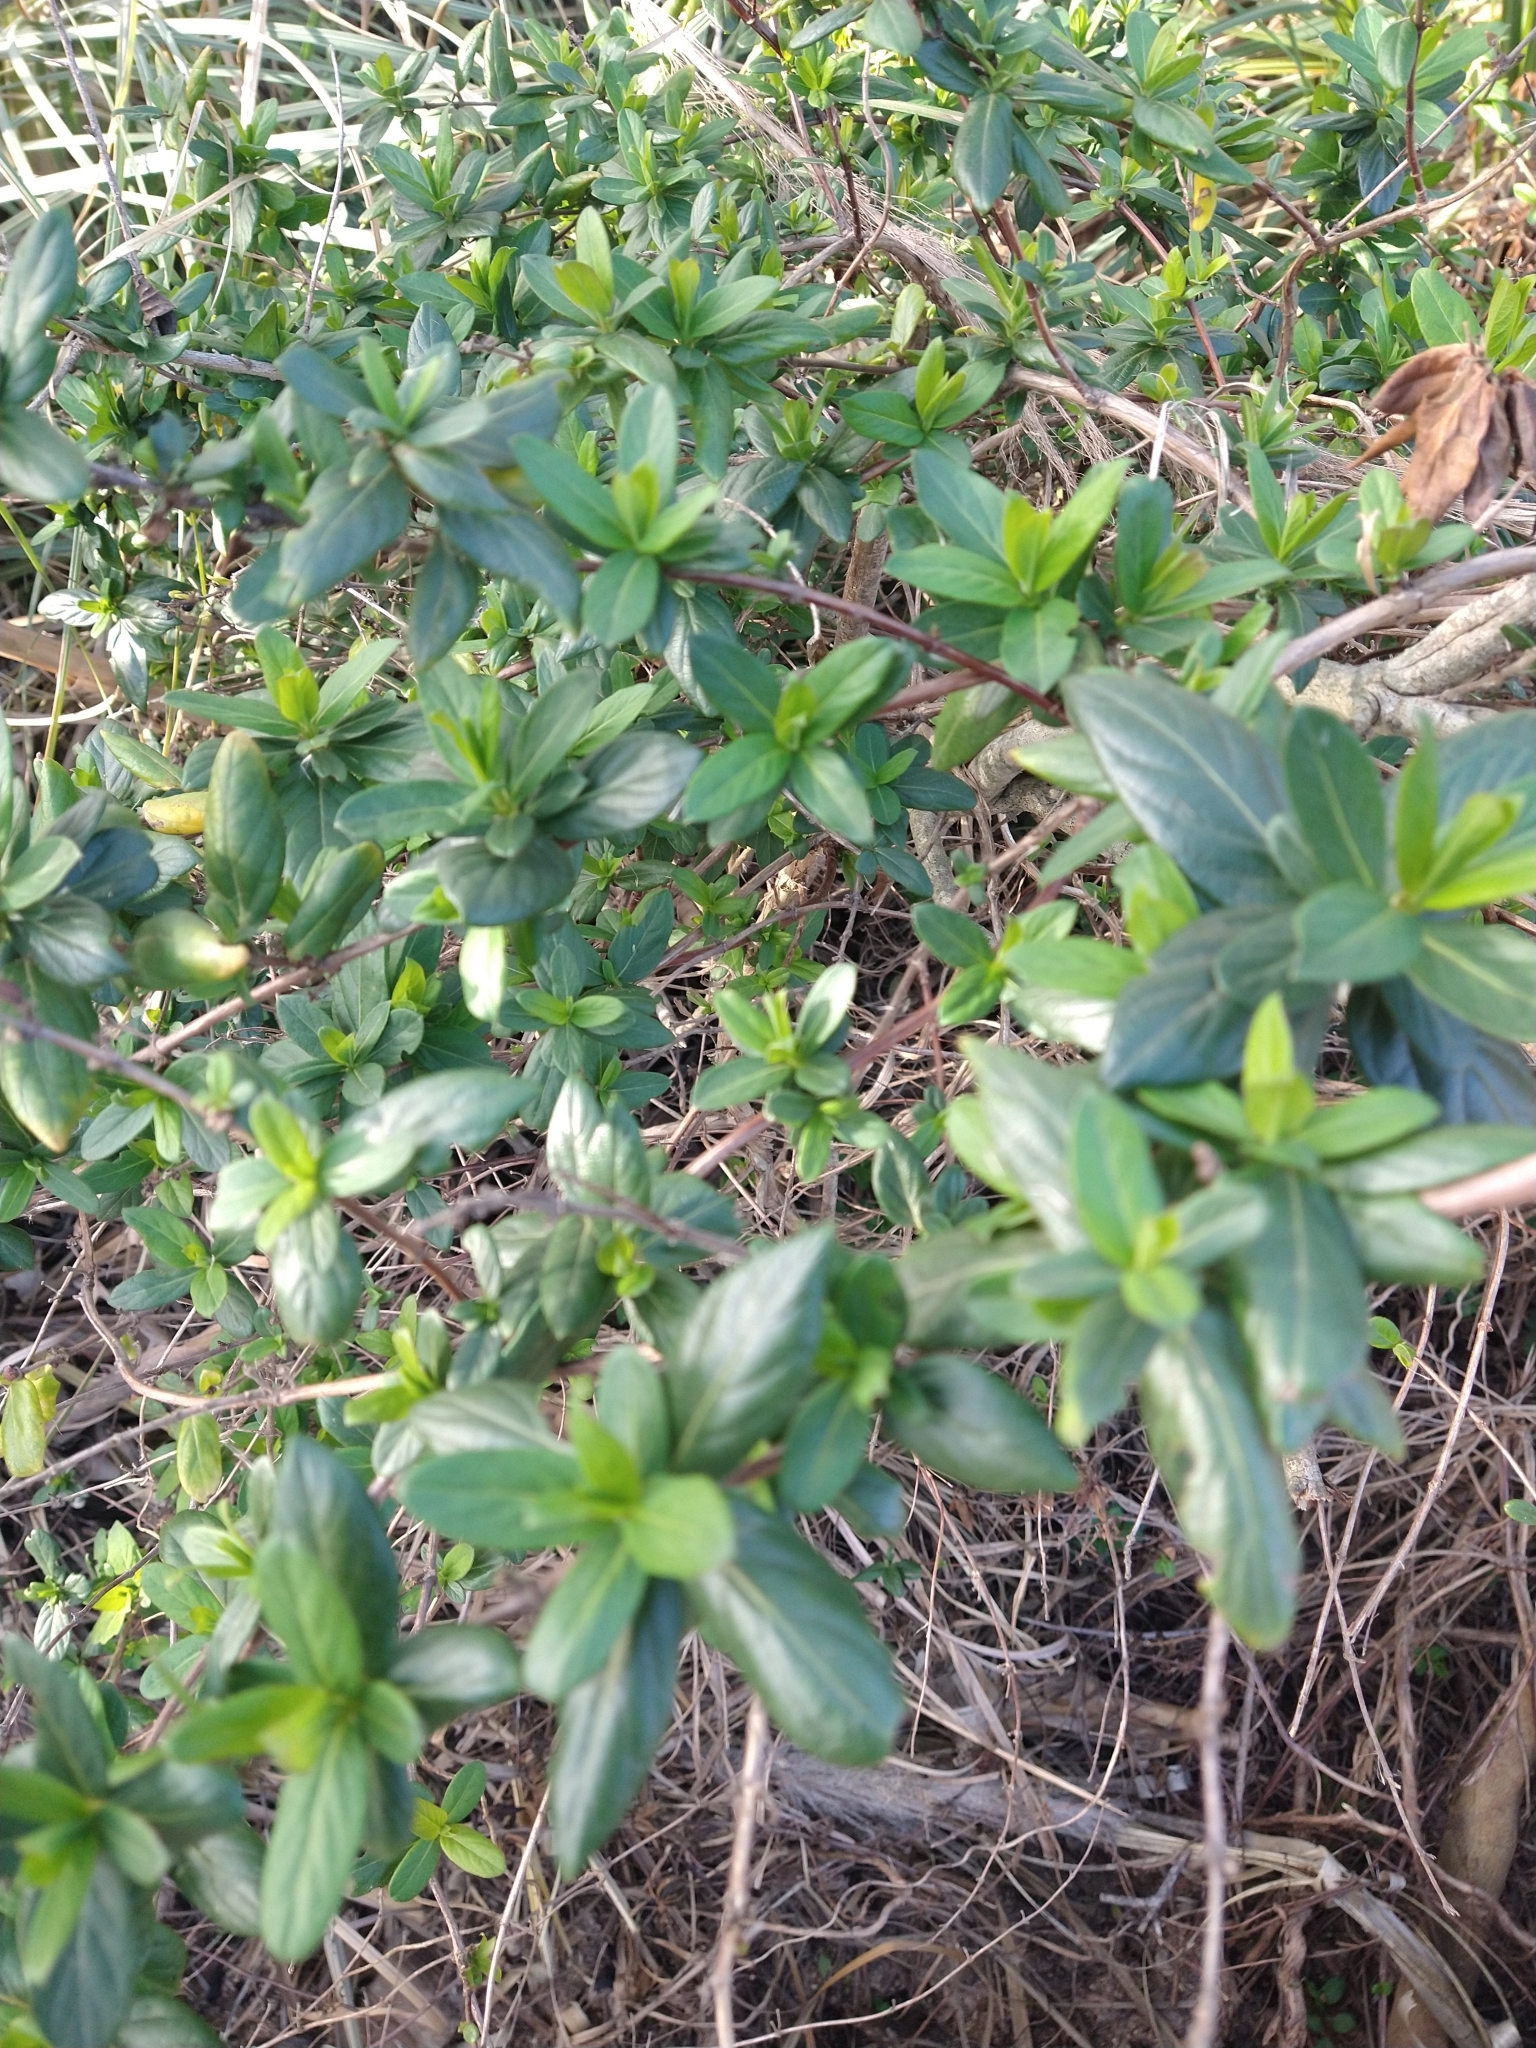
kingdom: Plantae
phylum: Tracheophyta
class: Magnoliopsida
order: Dipsacales
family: Caprifoliaceae
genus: Lonicera
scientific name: Lonicera japonica
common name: Japanese honeysuckle
